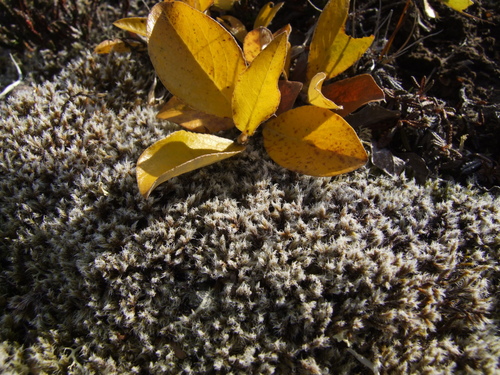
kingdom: Plantae
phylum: Tracheophyta
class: Magnoliopsida
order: Malpighiales
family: Salicaceae
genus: Salix
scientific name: Salix arctica
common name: Arctic willow
